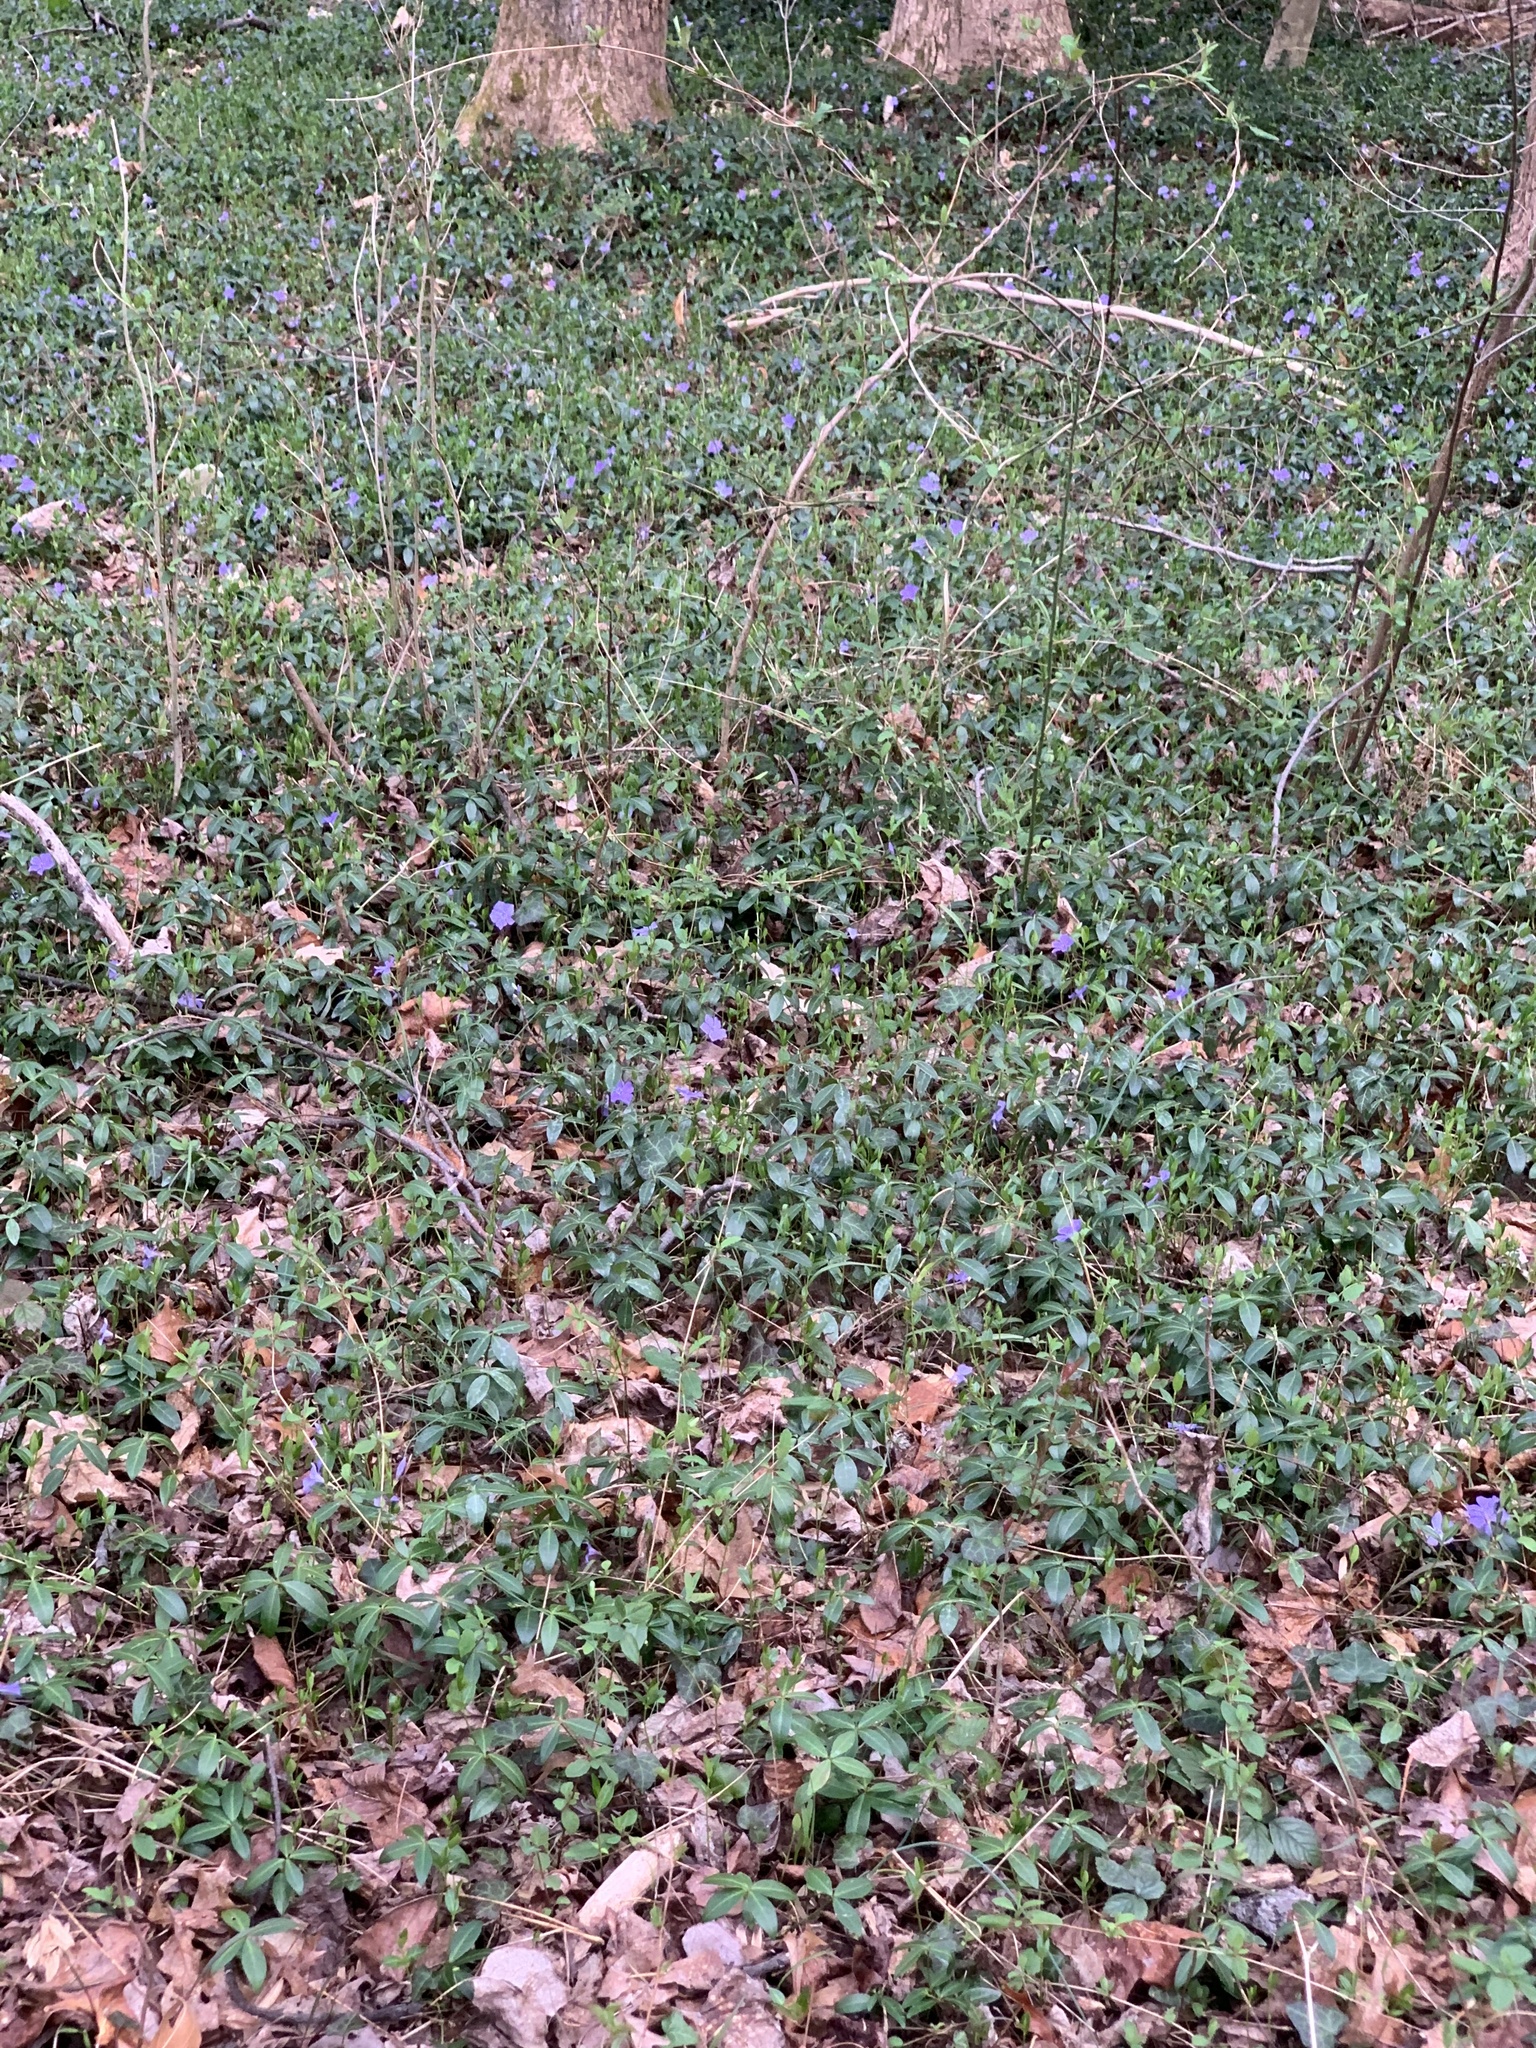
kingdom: Plantae
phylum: Tracheophyta
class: Magnoliopsida
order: Gentianales
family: Apocynaceae
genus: Vinca
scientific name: Vinca minor
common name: Lesser periwinkle
